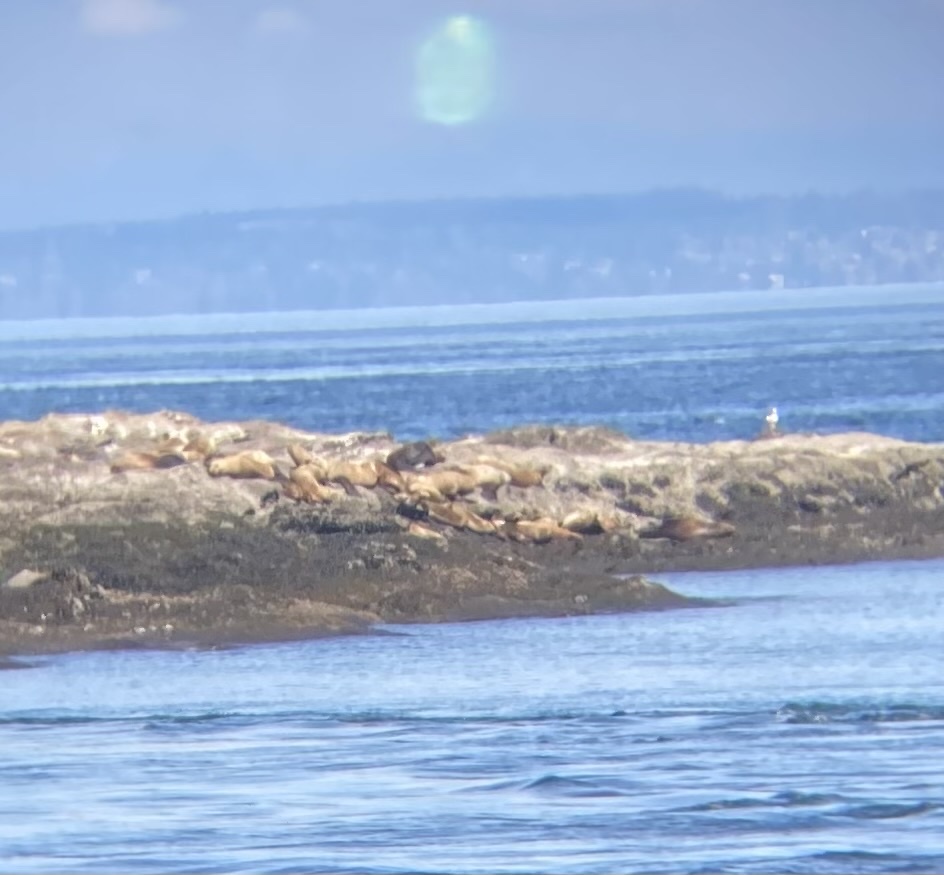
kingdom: Animalia
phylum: Chordata
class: Mammalia
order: Carnivora
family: Otariidae
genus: Eumetopias
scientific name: Eumetopias jubatus
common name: Steller sea lion
